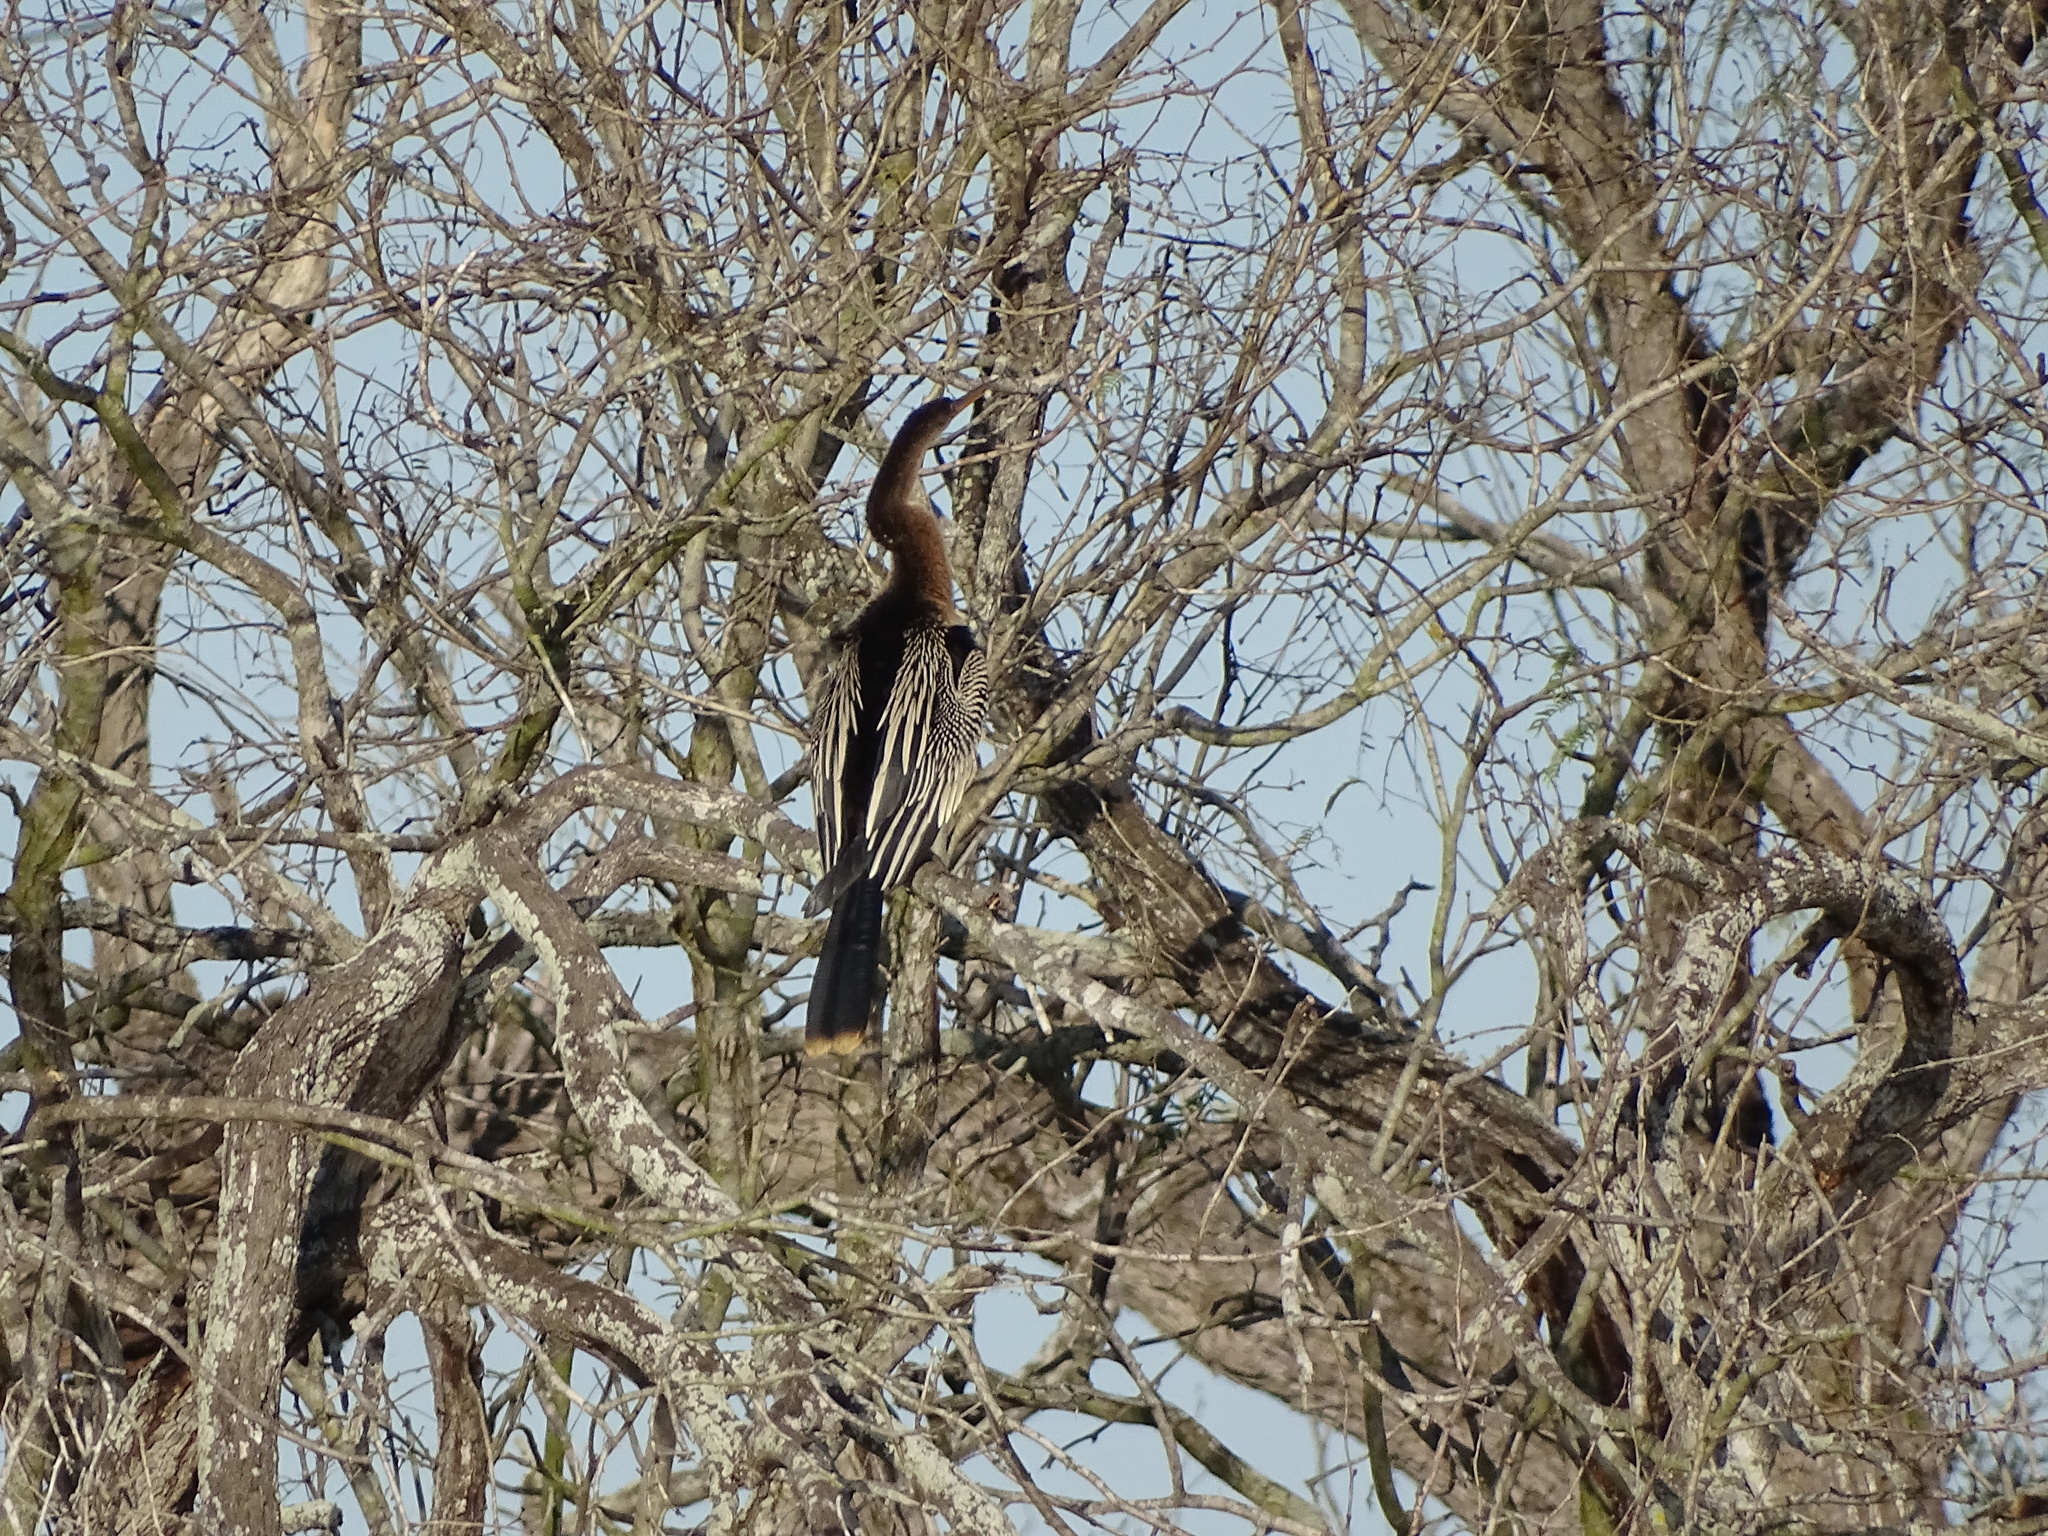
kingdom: Animalia
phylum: Chordata
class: Aves
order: Suliformes
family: Anhingidae
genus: Anhinga
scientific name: Anhinga anhinga
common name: Anhinga
